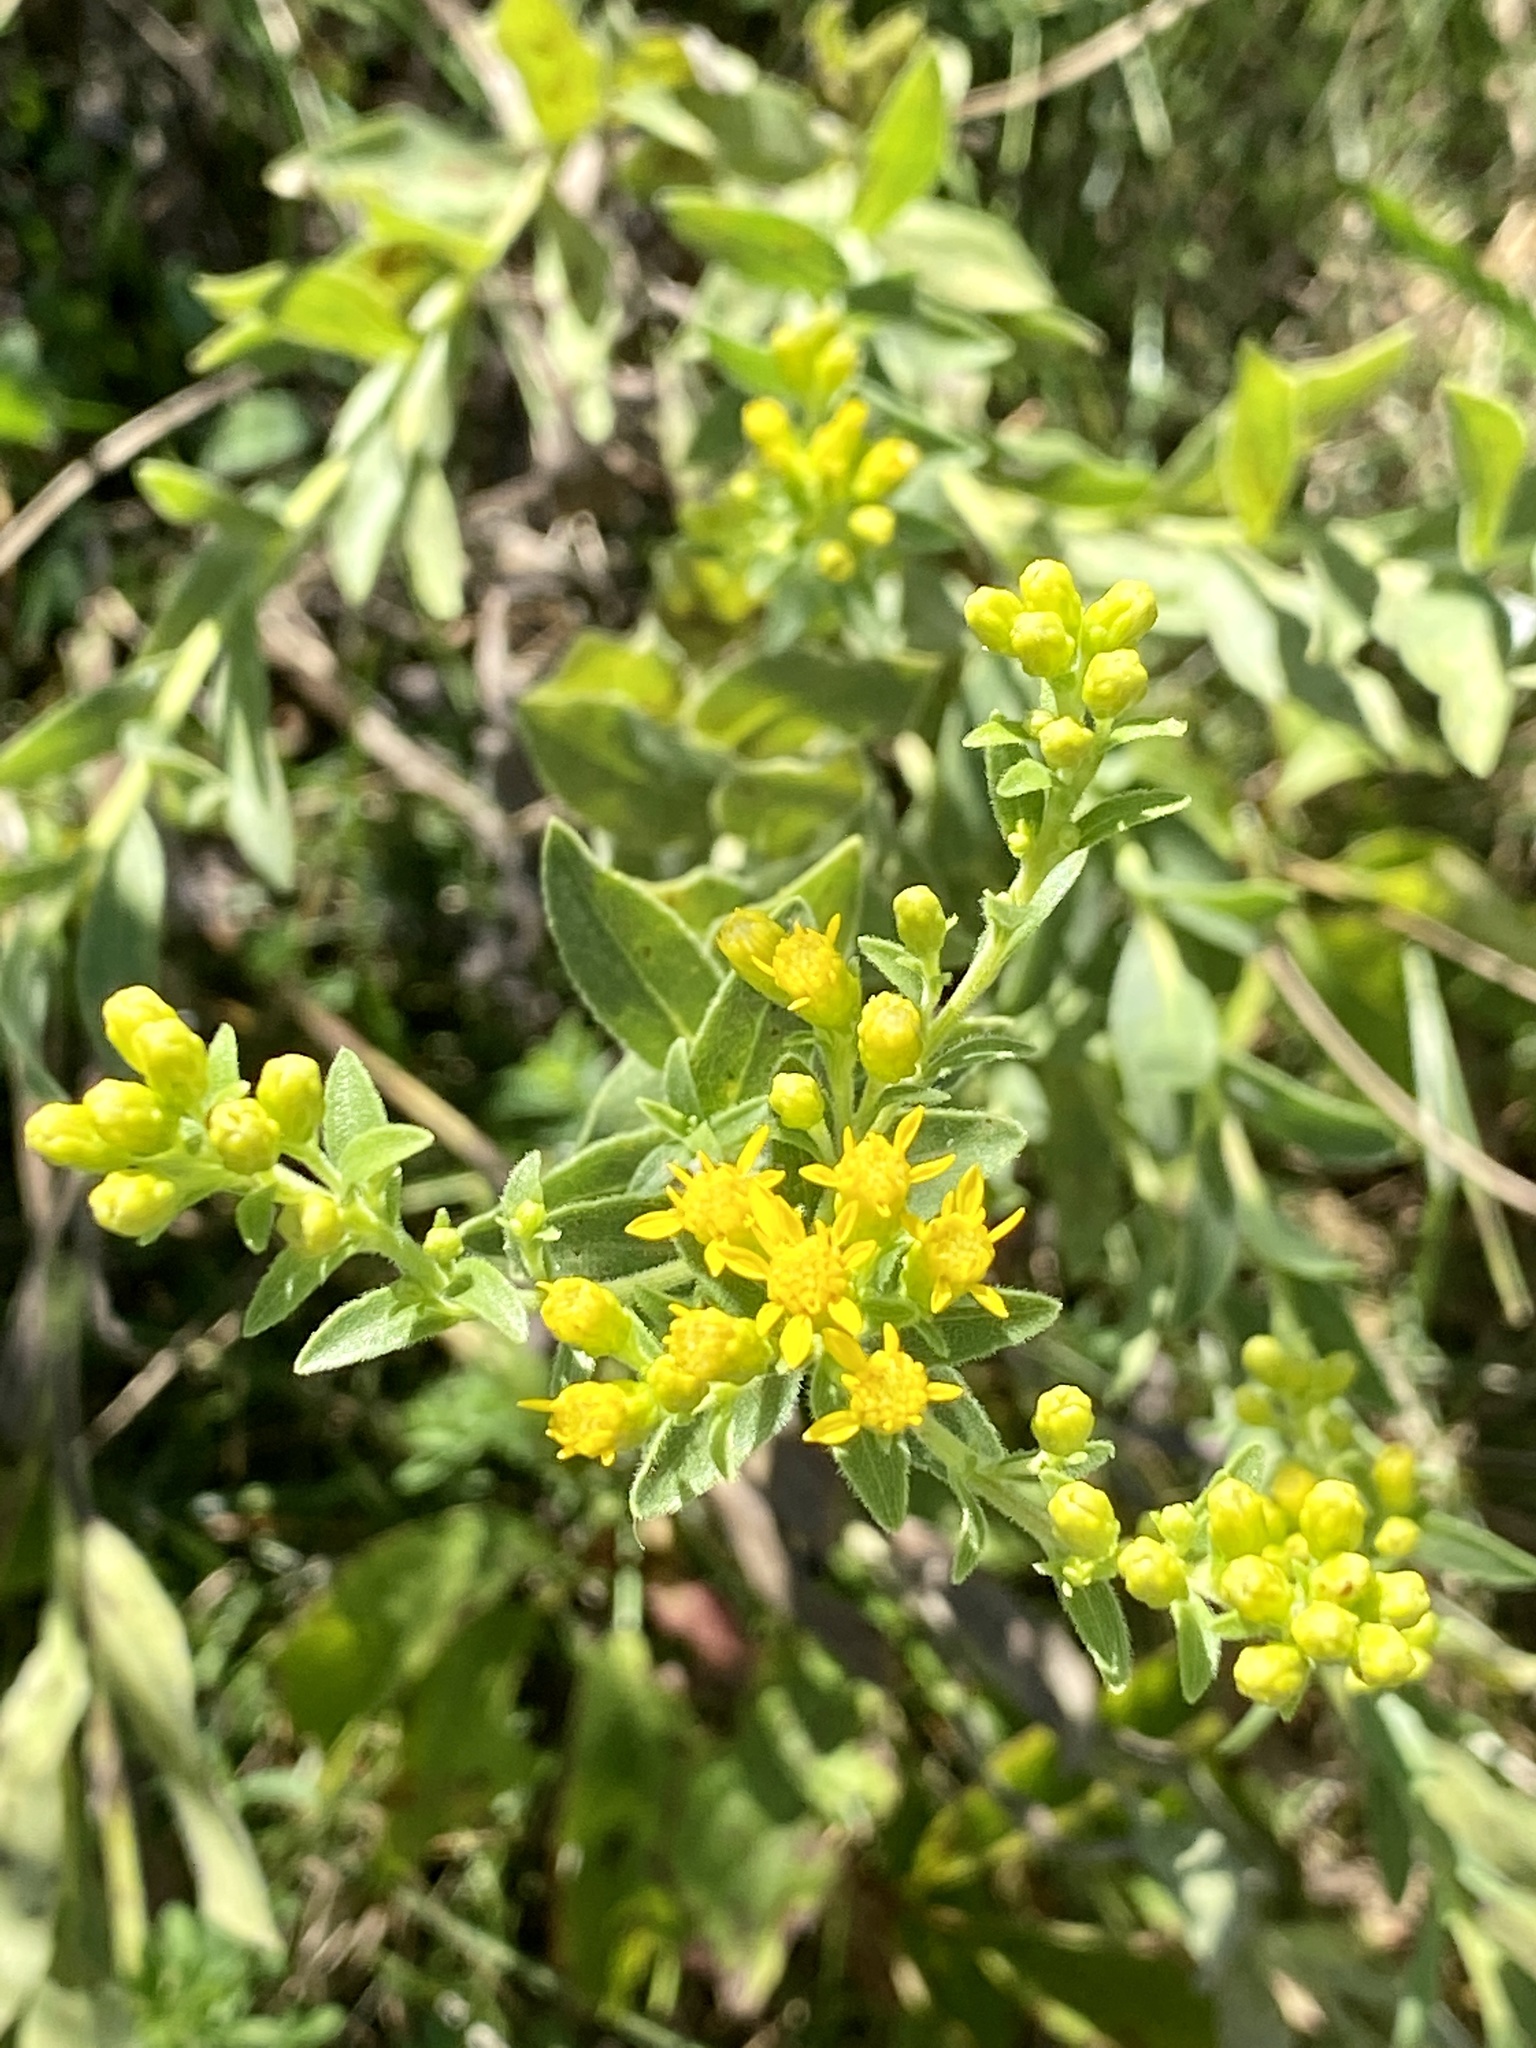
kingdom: Plantae
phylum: Tracheophyta
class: Magnoliopsida
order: Asterales
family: Asteraceae
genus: Solidago
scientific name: Solidago rigida
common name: Rigid goldenrod
